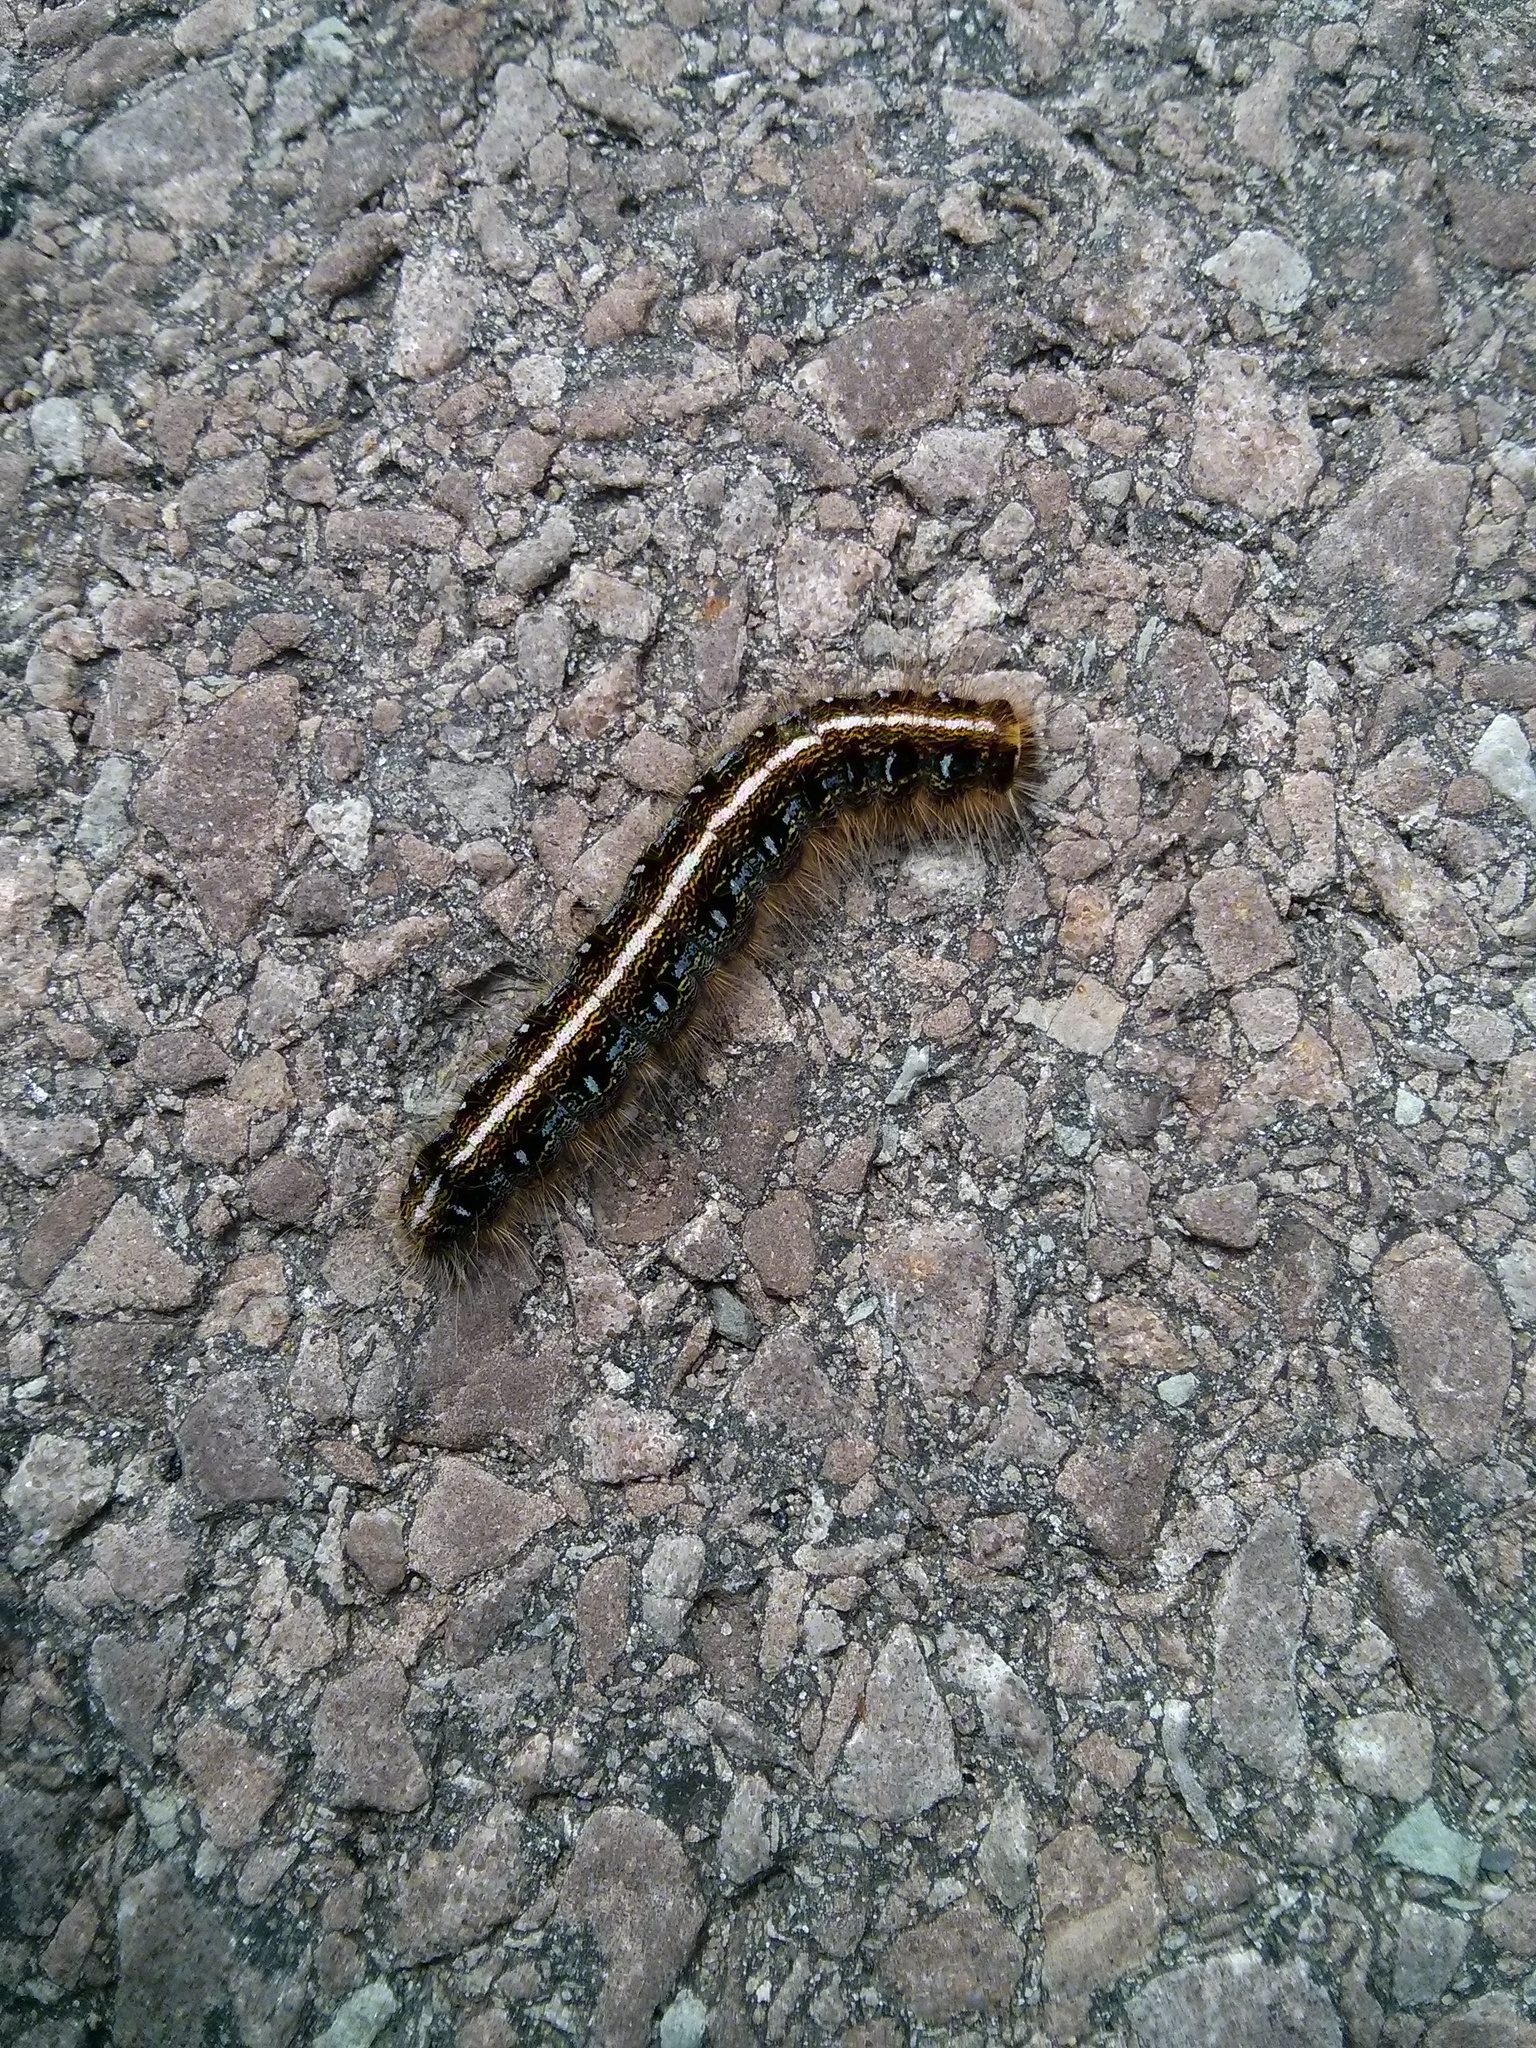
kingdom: Animalia
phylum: Arthropoda
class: Insecta
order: Lepidoptera
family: Lasiocampidae
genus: Malacosoma
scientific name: Malacosoma americana
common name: Eastern tent caterpillar moth
